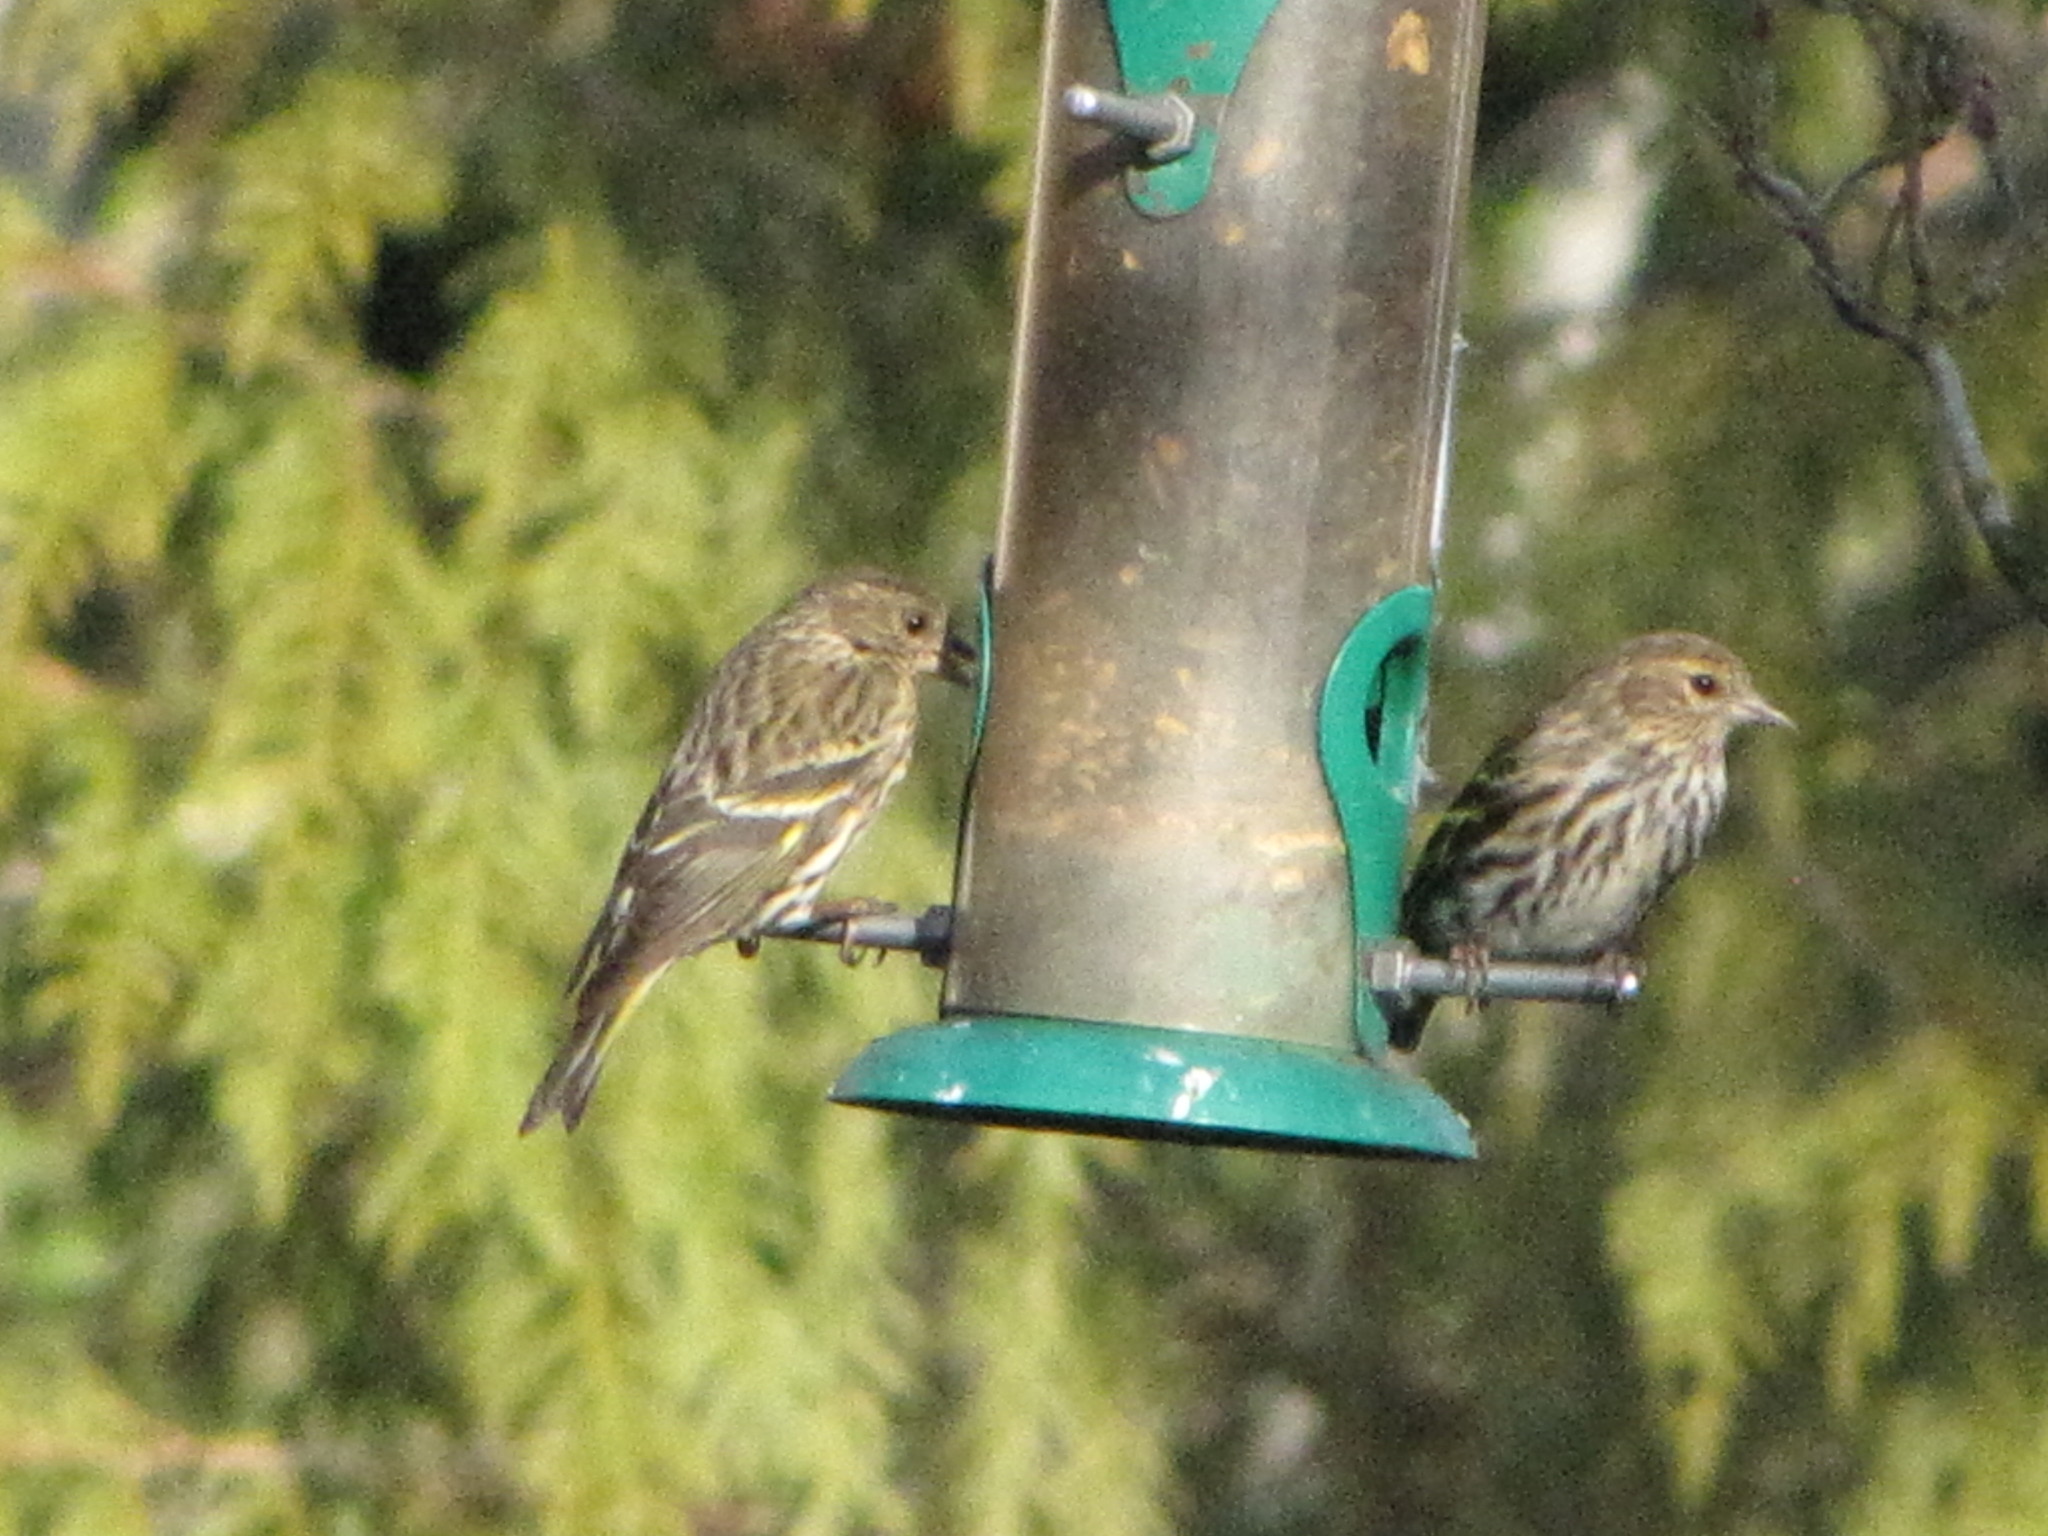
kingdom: Animalia
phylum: Chordata
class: Aves
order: Passeriformes
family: Fringillidae
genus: Spinus
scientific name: Spinus pinus
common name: Pine siskin
